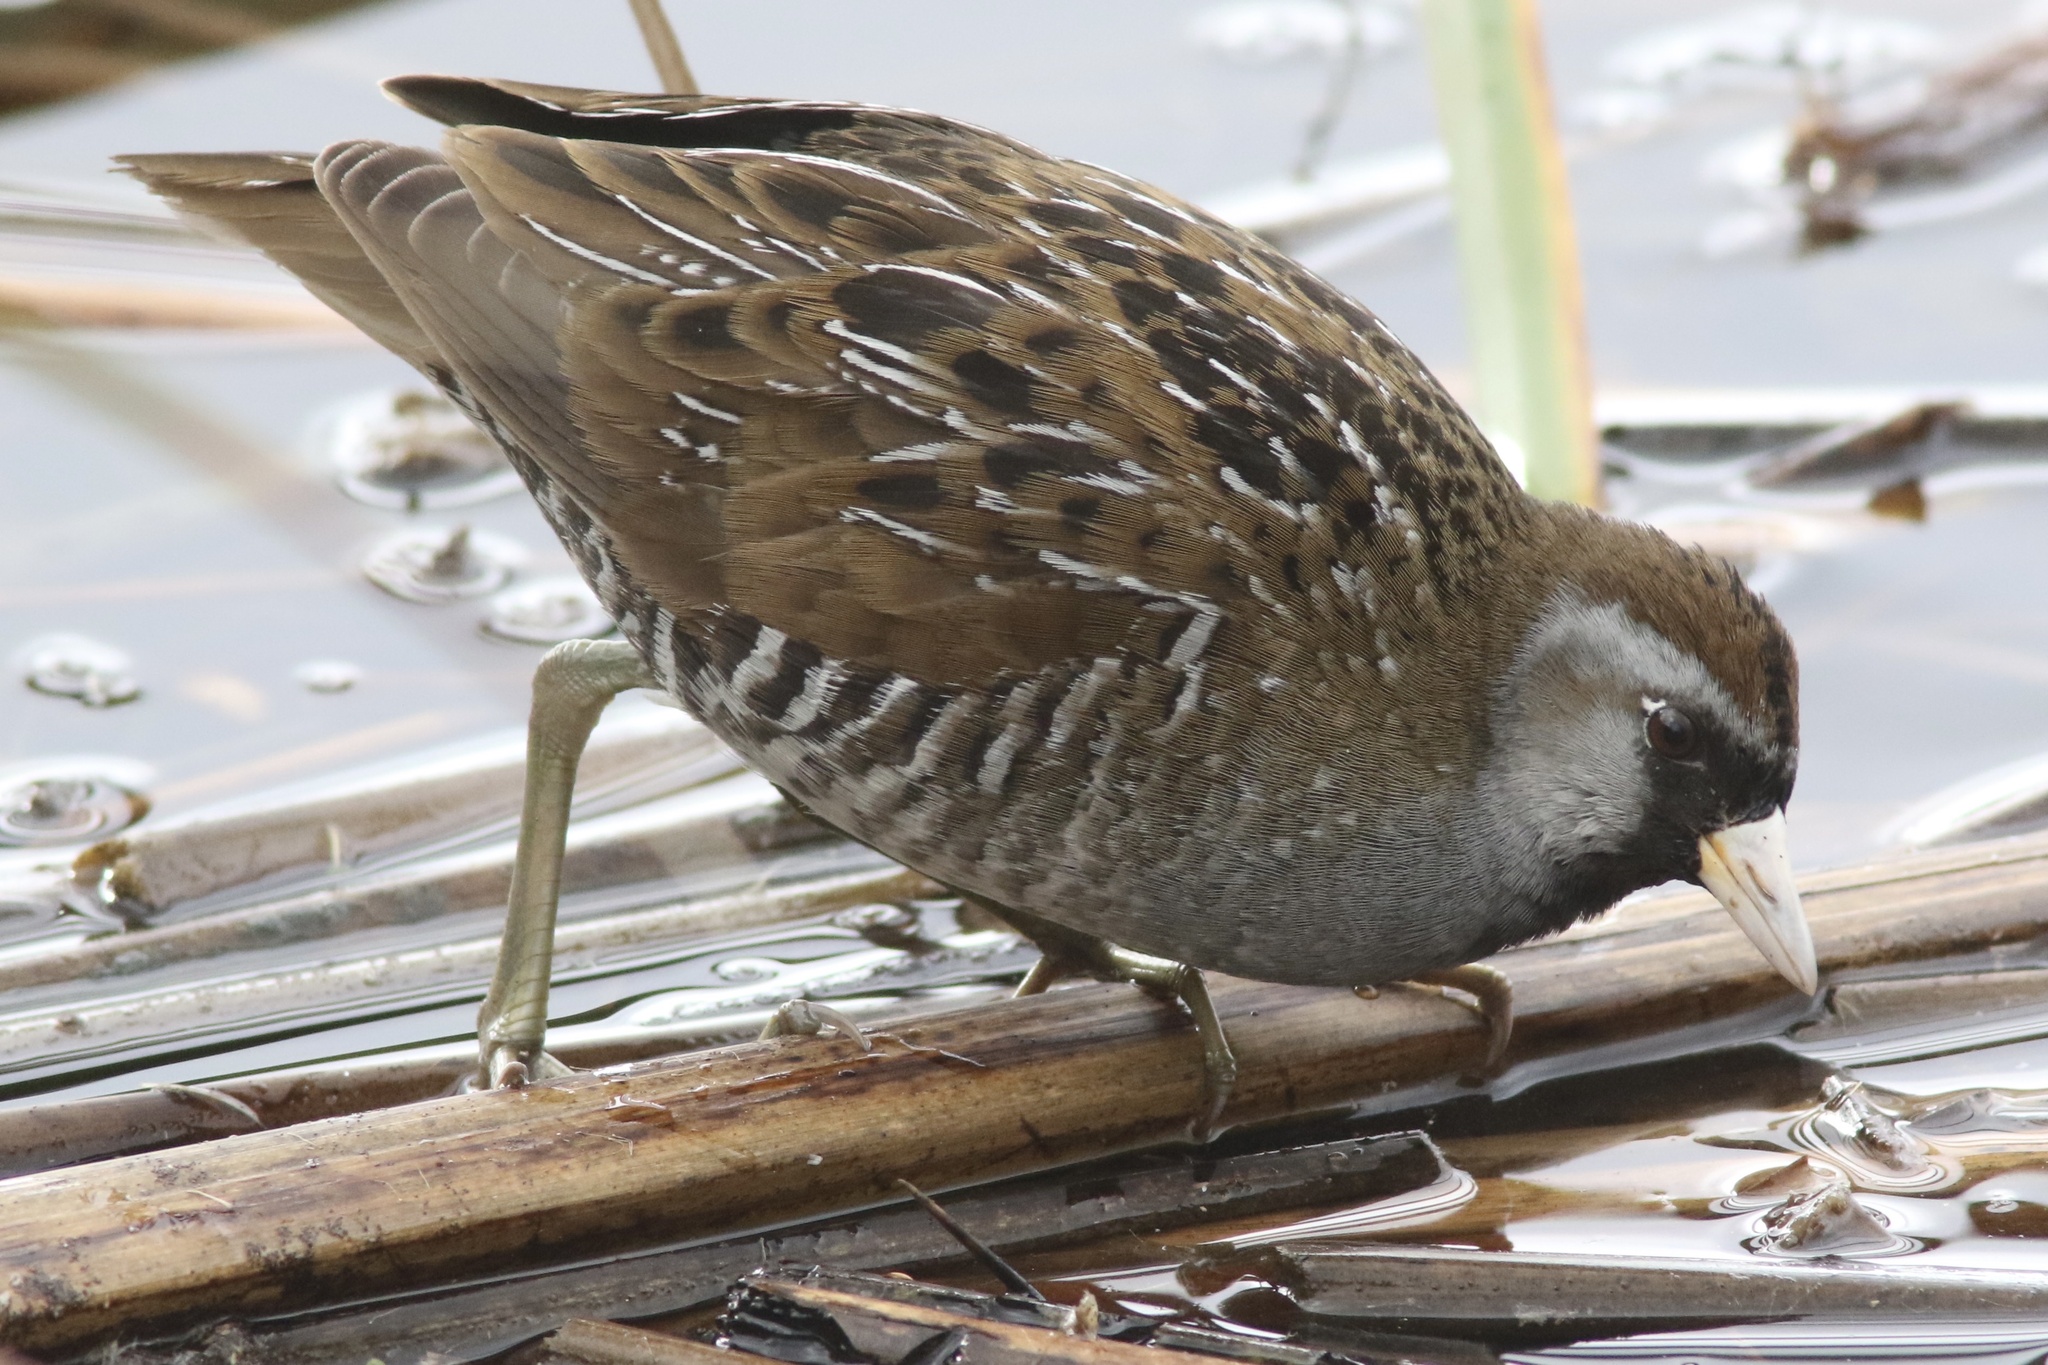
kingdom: Animalia
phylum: Chordata
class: Aves
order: Gruiformes
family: Rallidae
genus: Porzana
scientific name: Porzana carolina
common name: Sora
